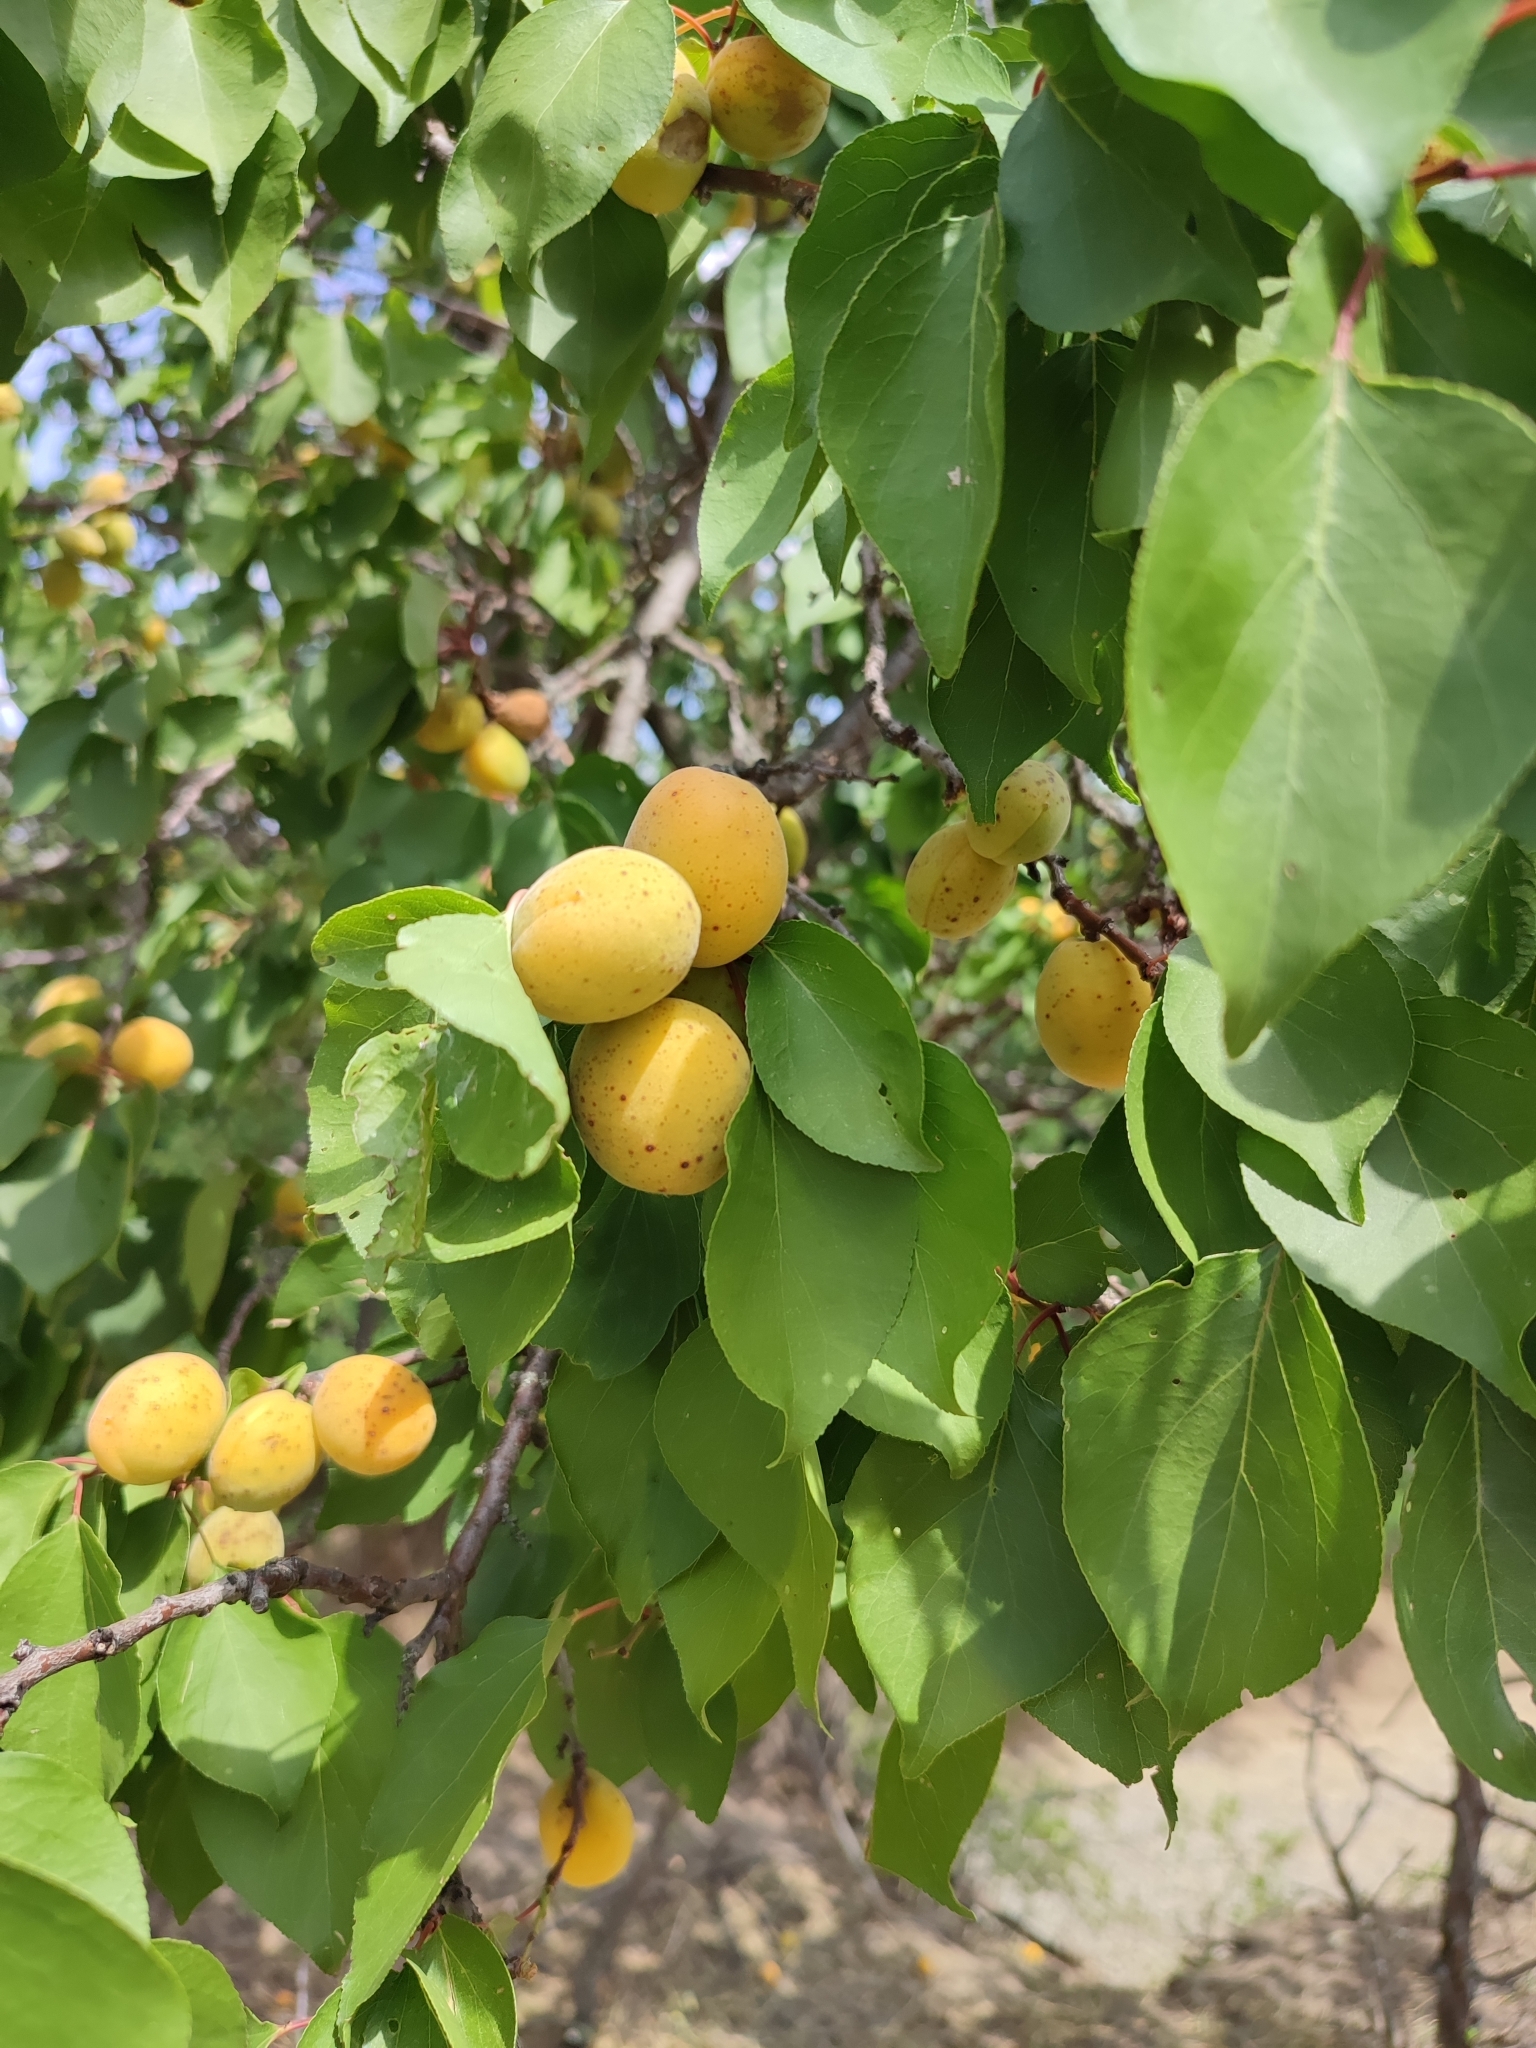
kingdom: Plantae
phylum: Tracheophyta
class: Magnoliopsida
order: Rosales
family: Rosaceae
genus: Prunus
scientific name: Prunus armeniaca
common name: Apricot
